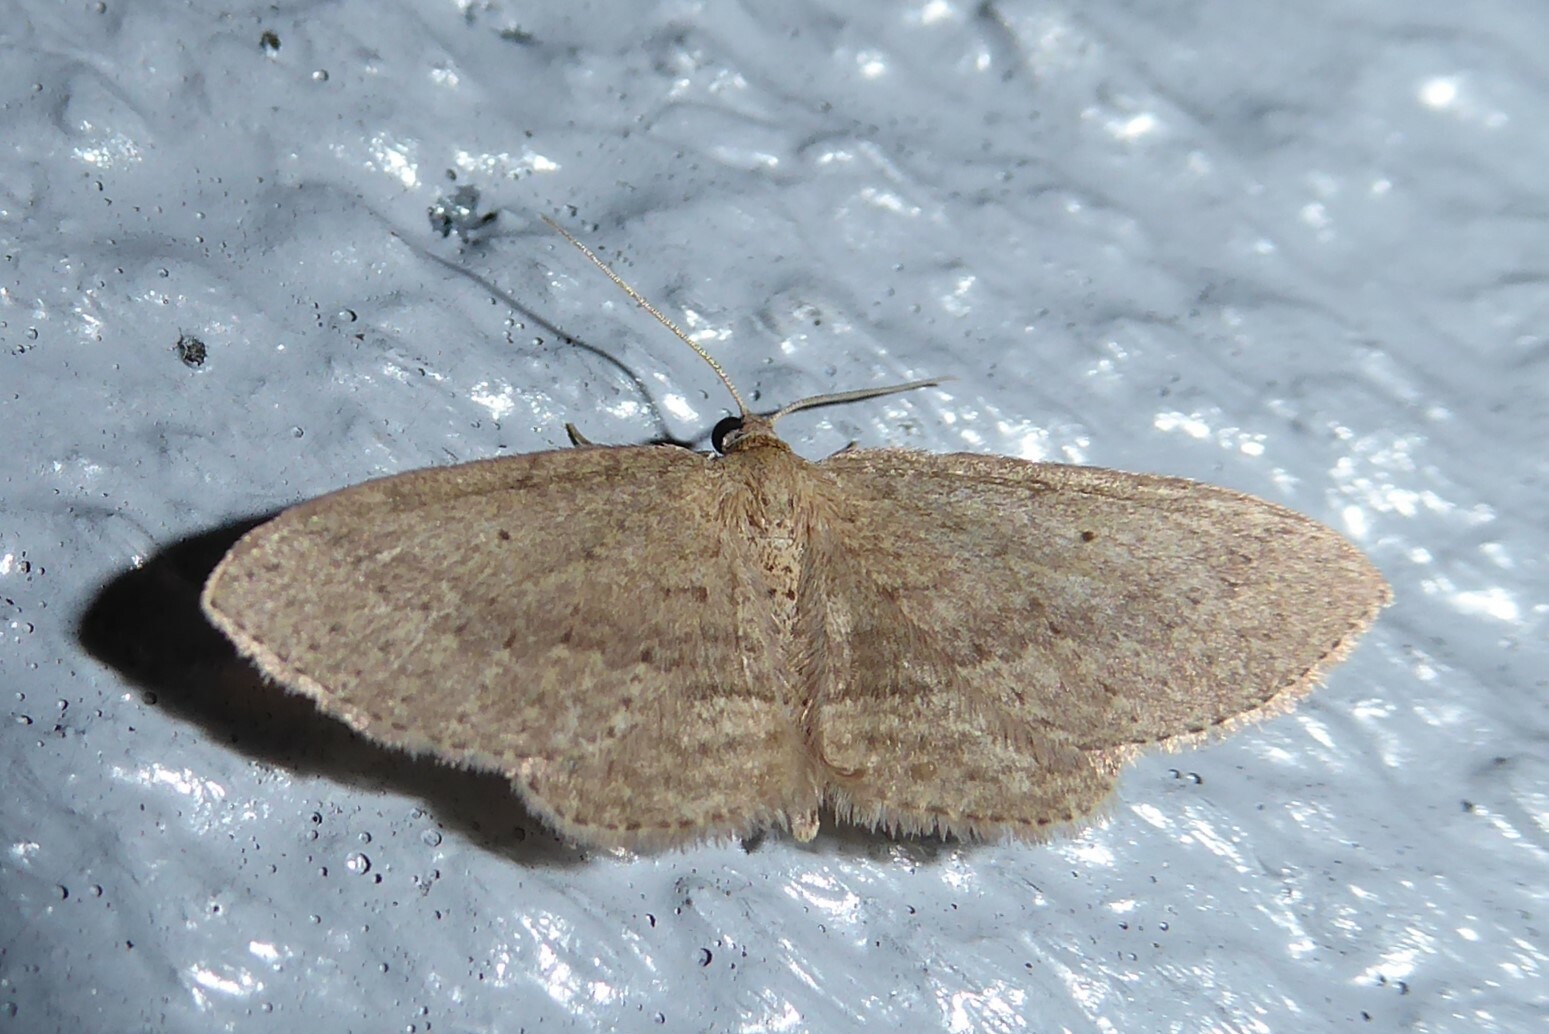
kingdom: Animalia
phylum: Arthropoda
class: Insecta
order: Lepidoptera
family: Geometridae
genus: Poecilasthena
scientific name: Poecilasthena schistaria
